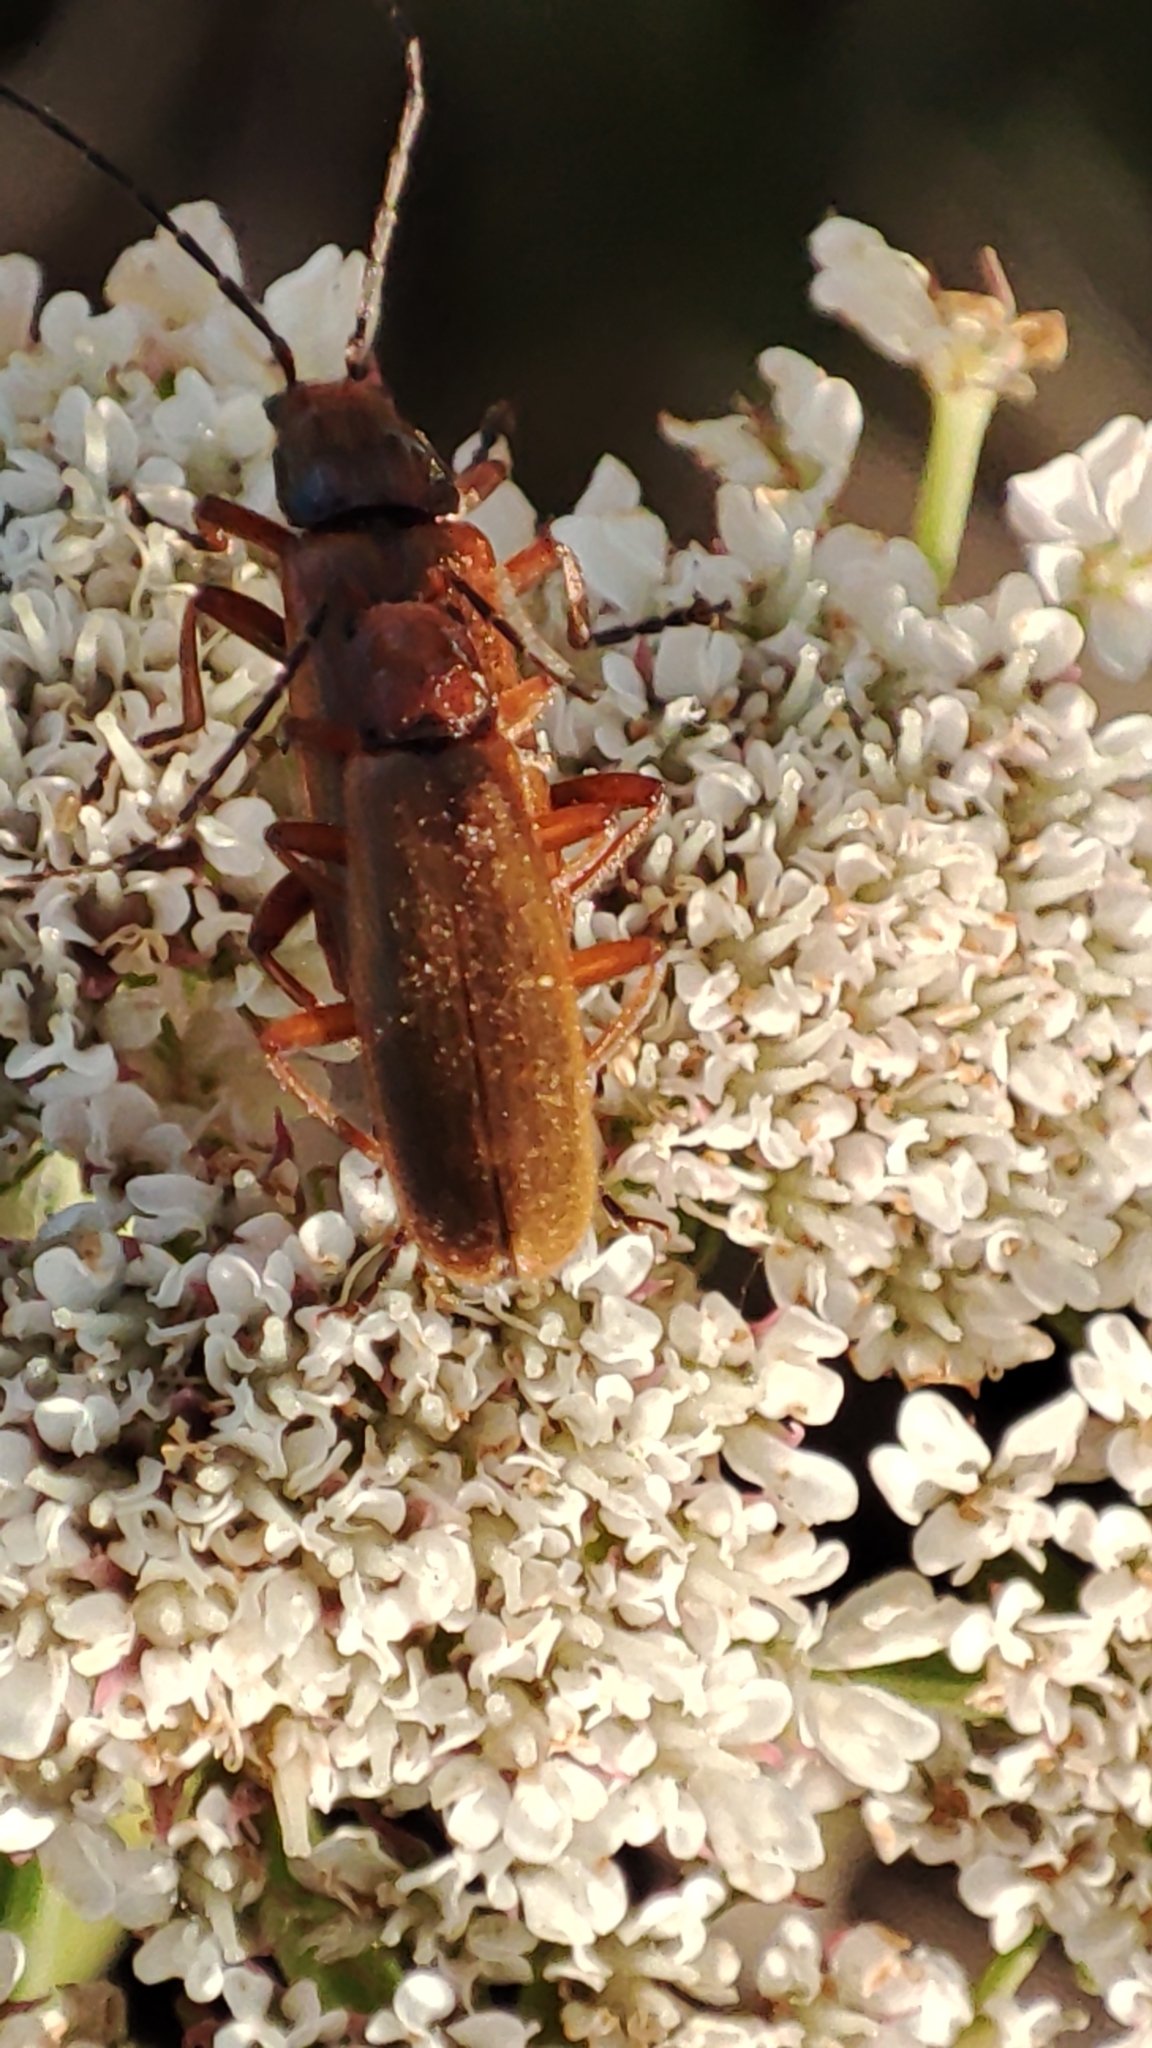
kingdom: Animalia
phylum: Arthropoda
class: Insecta
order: Coleoptera
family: Cantharidae
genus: Rhagonycha
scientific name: Rhagonycha nigritarsis
